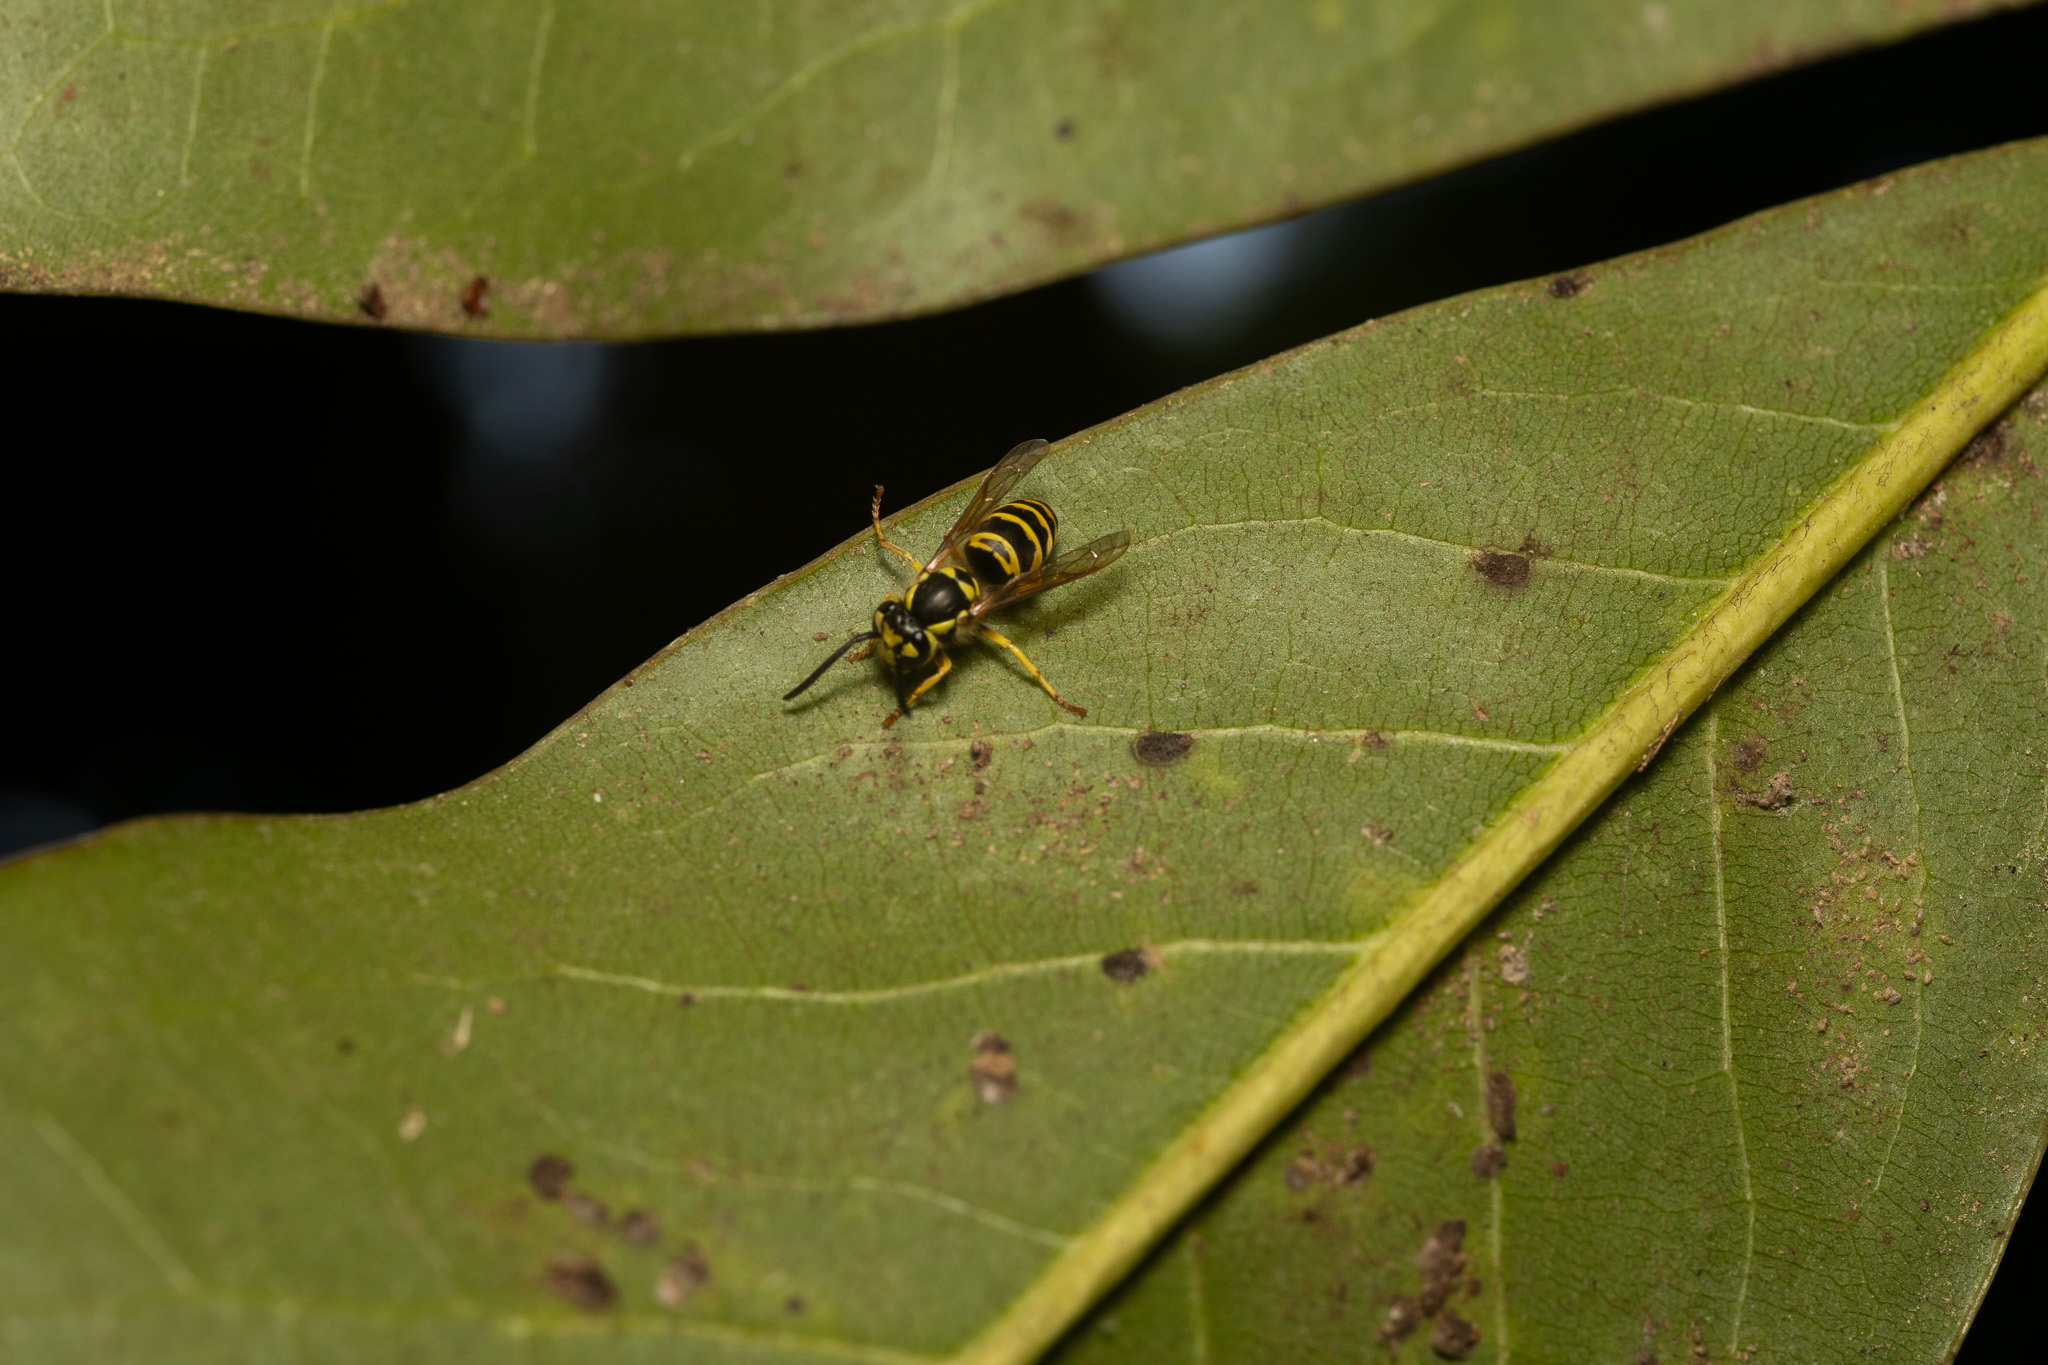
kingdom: Animalia
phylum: Arthropoda
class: Insecta
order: Hymenoptera
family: Vespidae
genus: Vespula
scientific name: Vespula maculifrons
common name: Eastern yellowjacket
